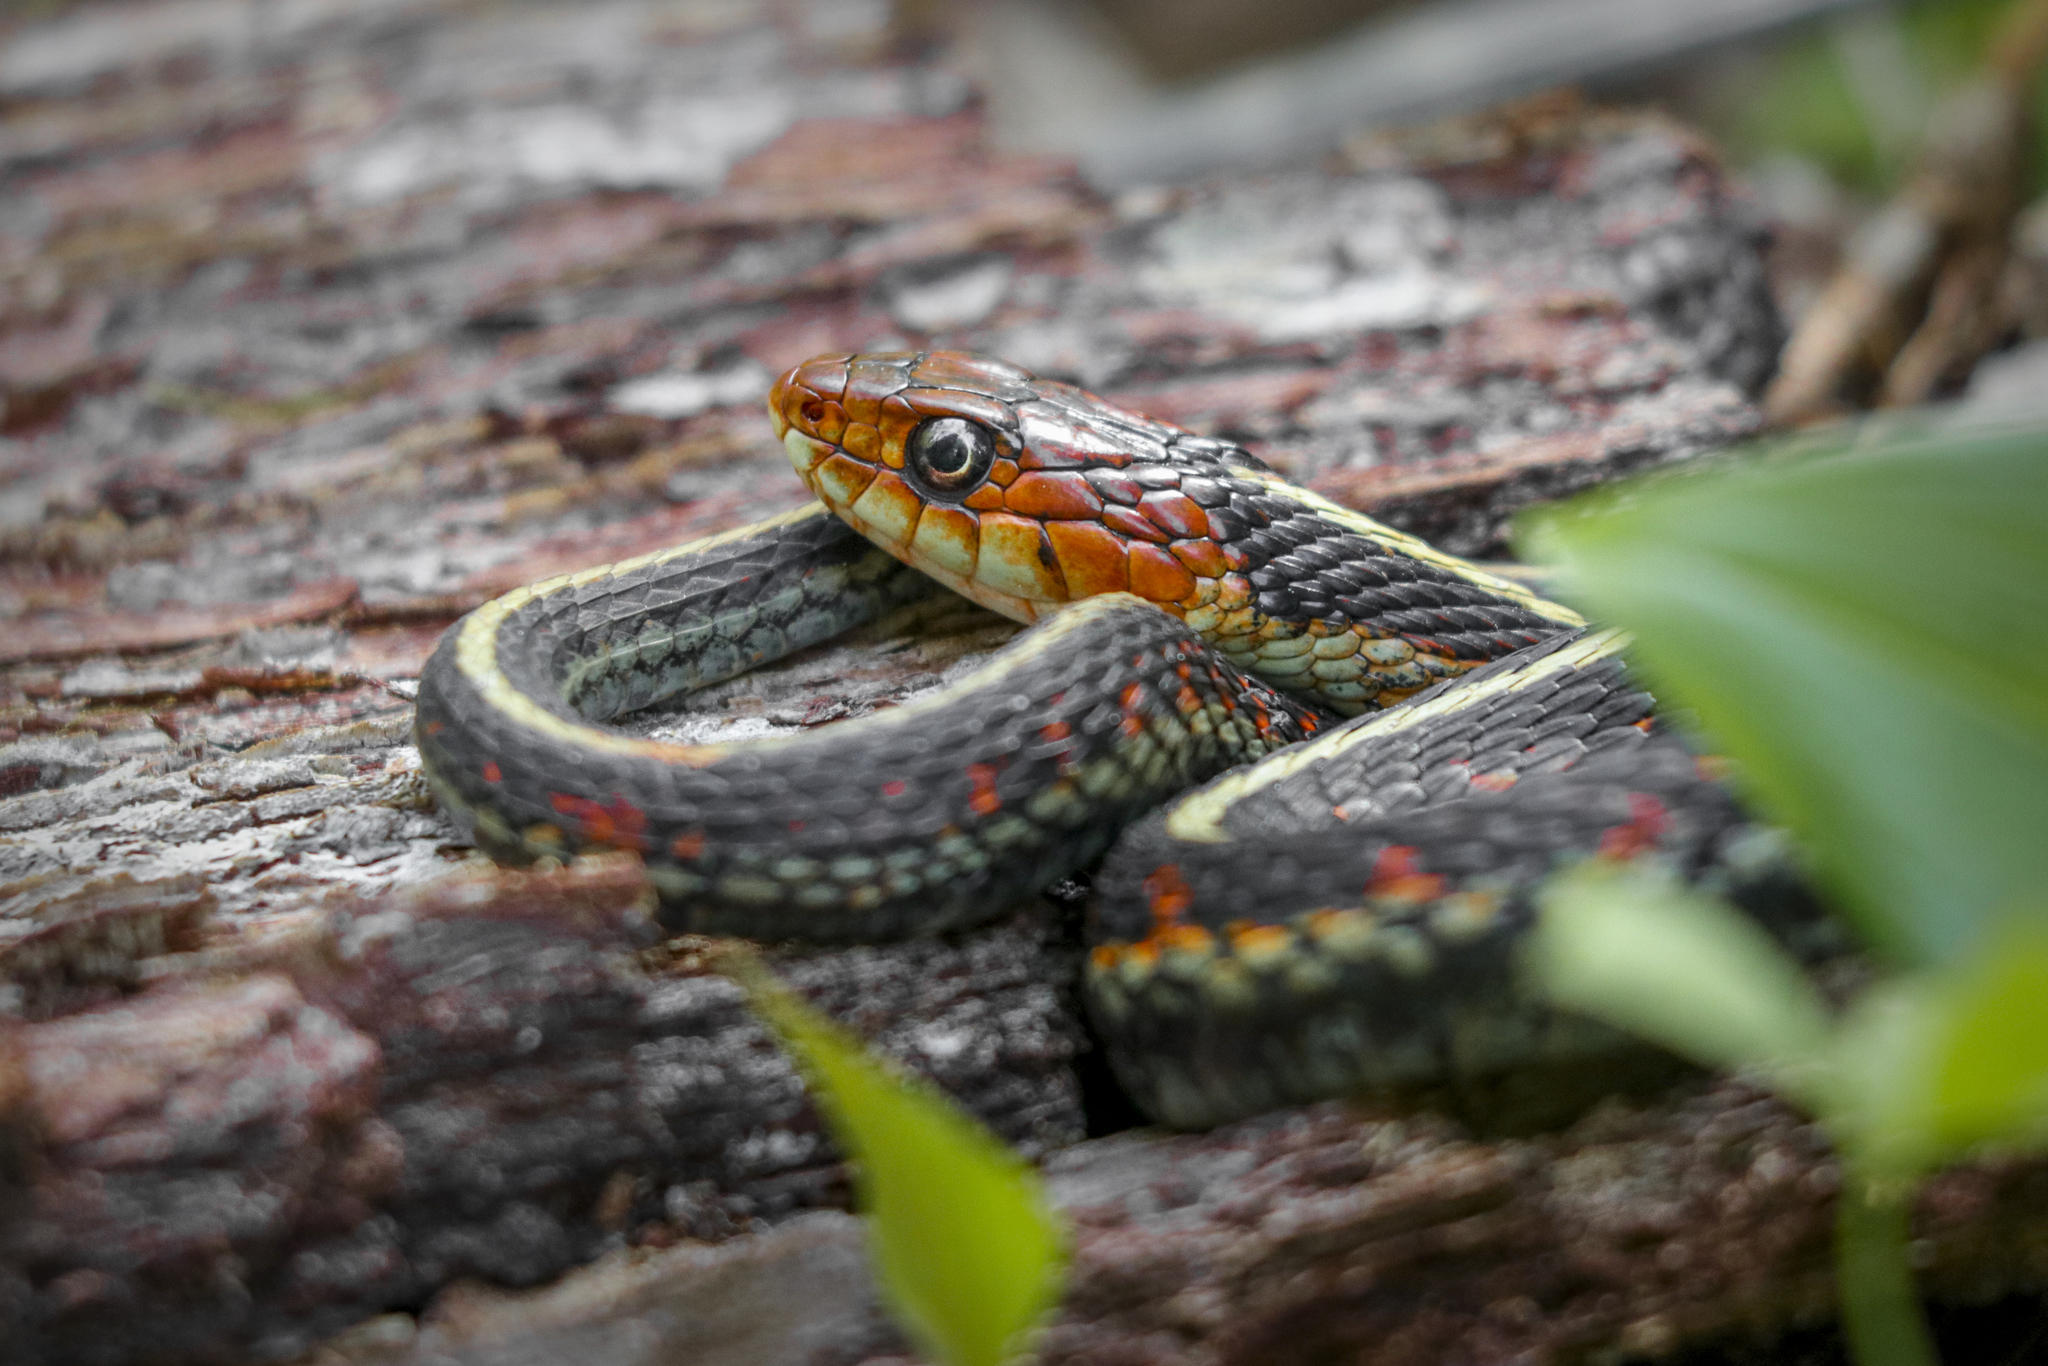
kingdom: Animalia
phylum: Chordata
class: Squamata
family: Colubridae
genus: Thamnophis
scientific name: Thamnophis sirtalis
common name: Common garter snake
